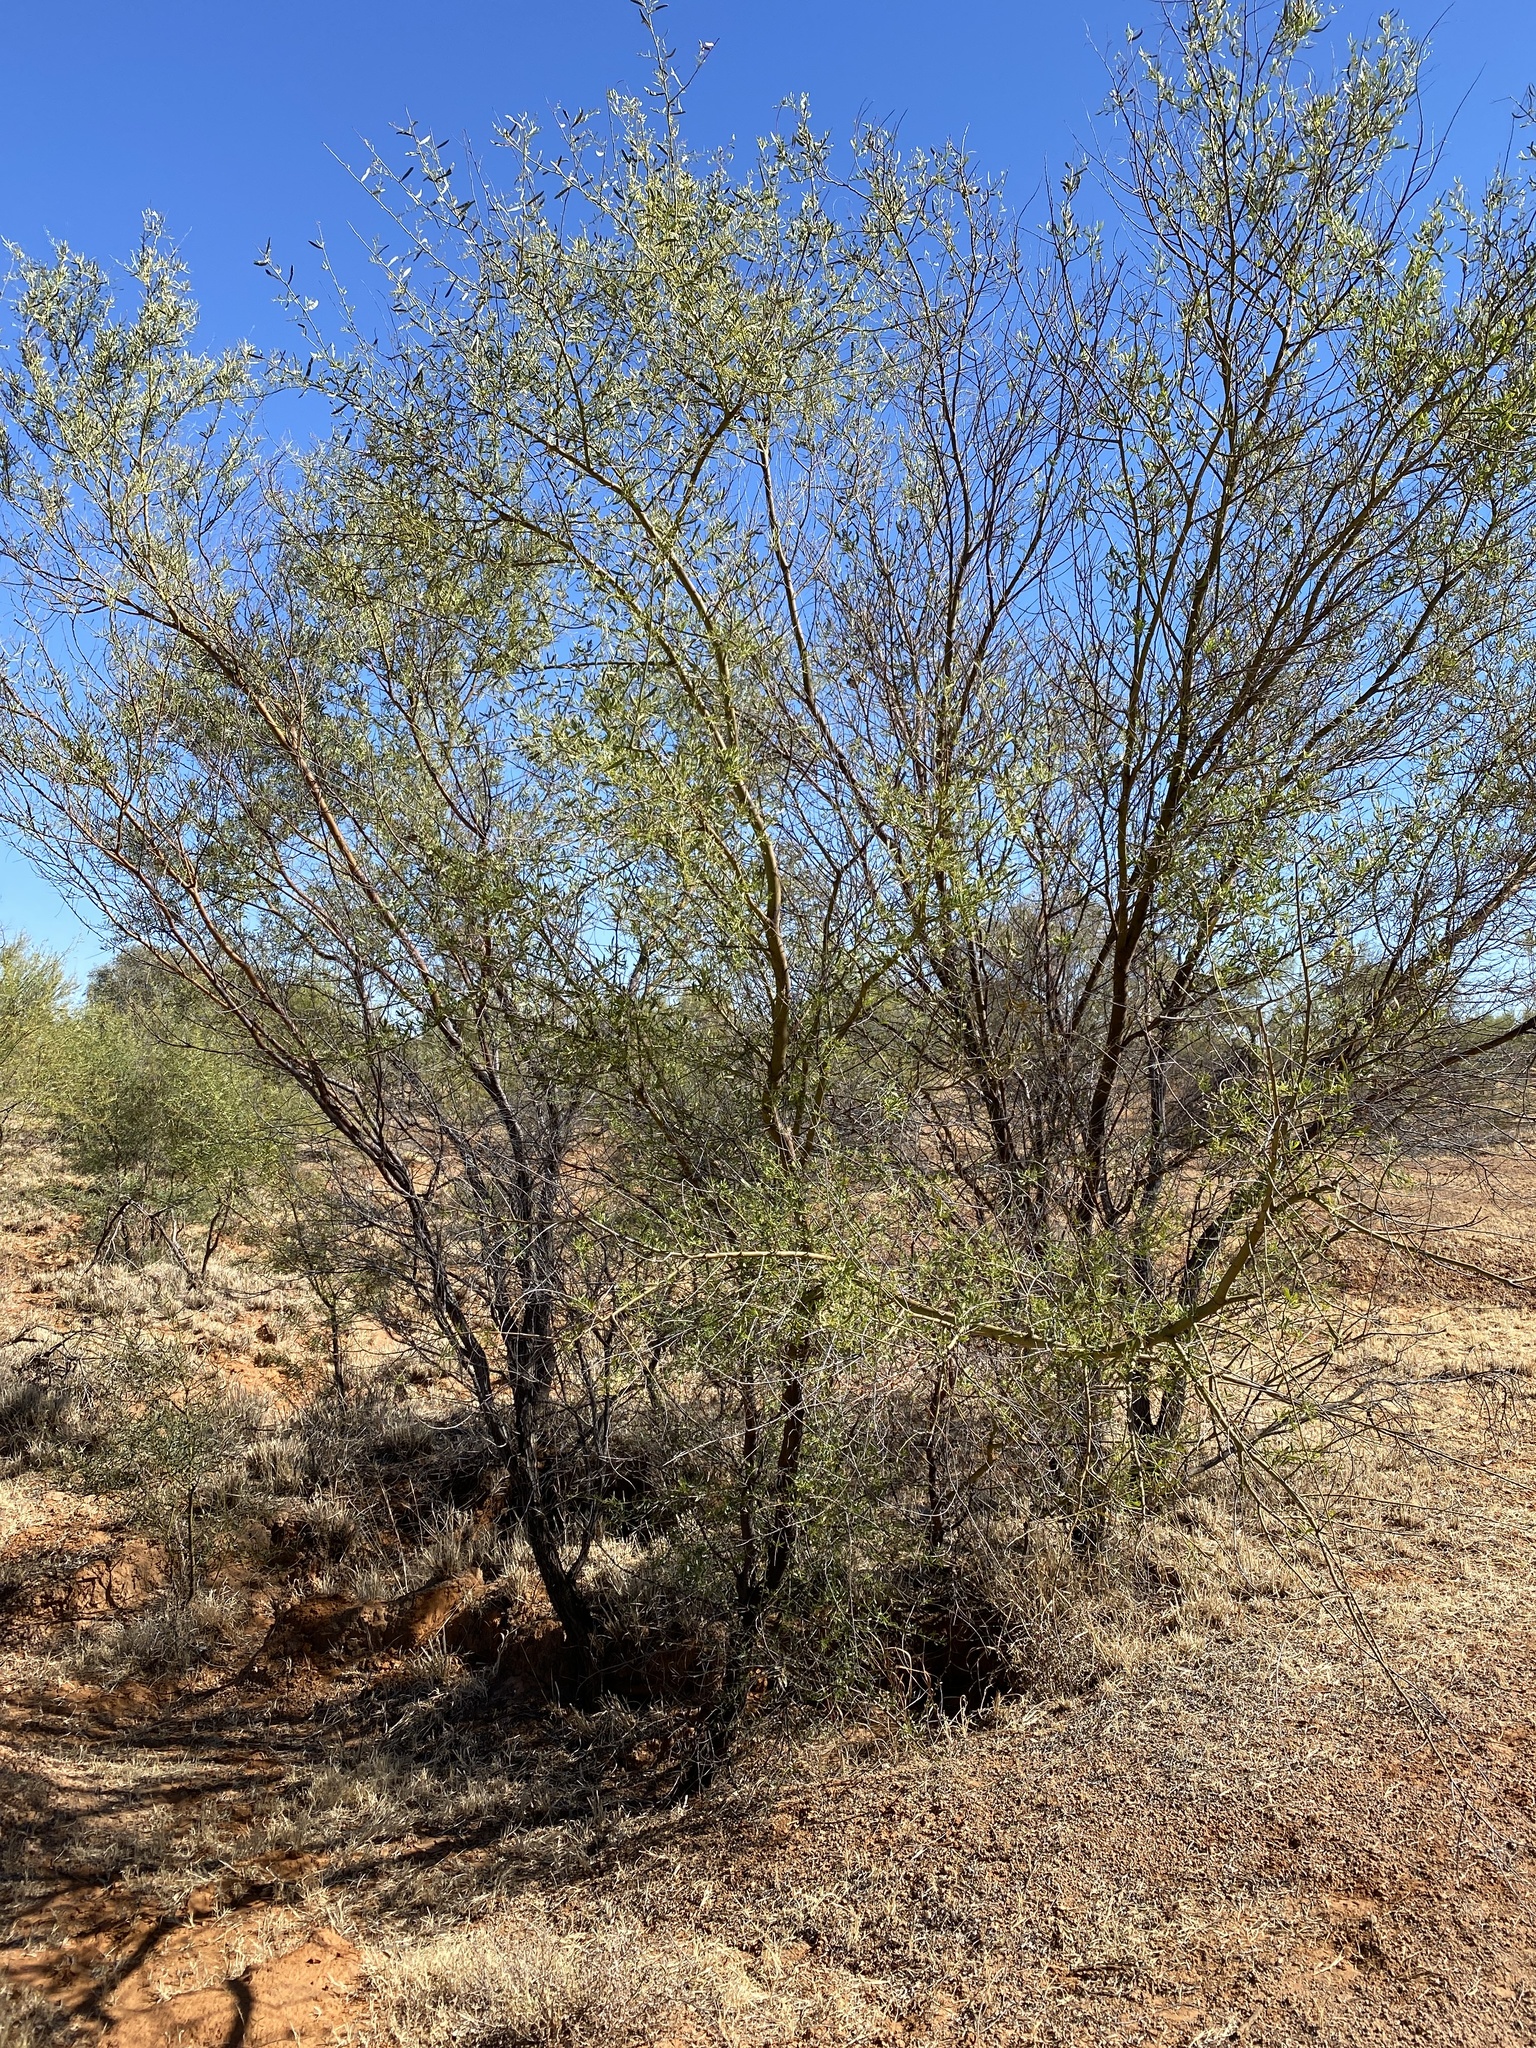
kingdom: Plantae
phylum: Tracheophyta
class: Magnoliopsida
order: Fabales
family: Fabaceae
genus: Acacia
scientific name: Acacia victoriae
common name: Bramble wattle
